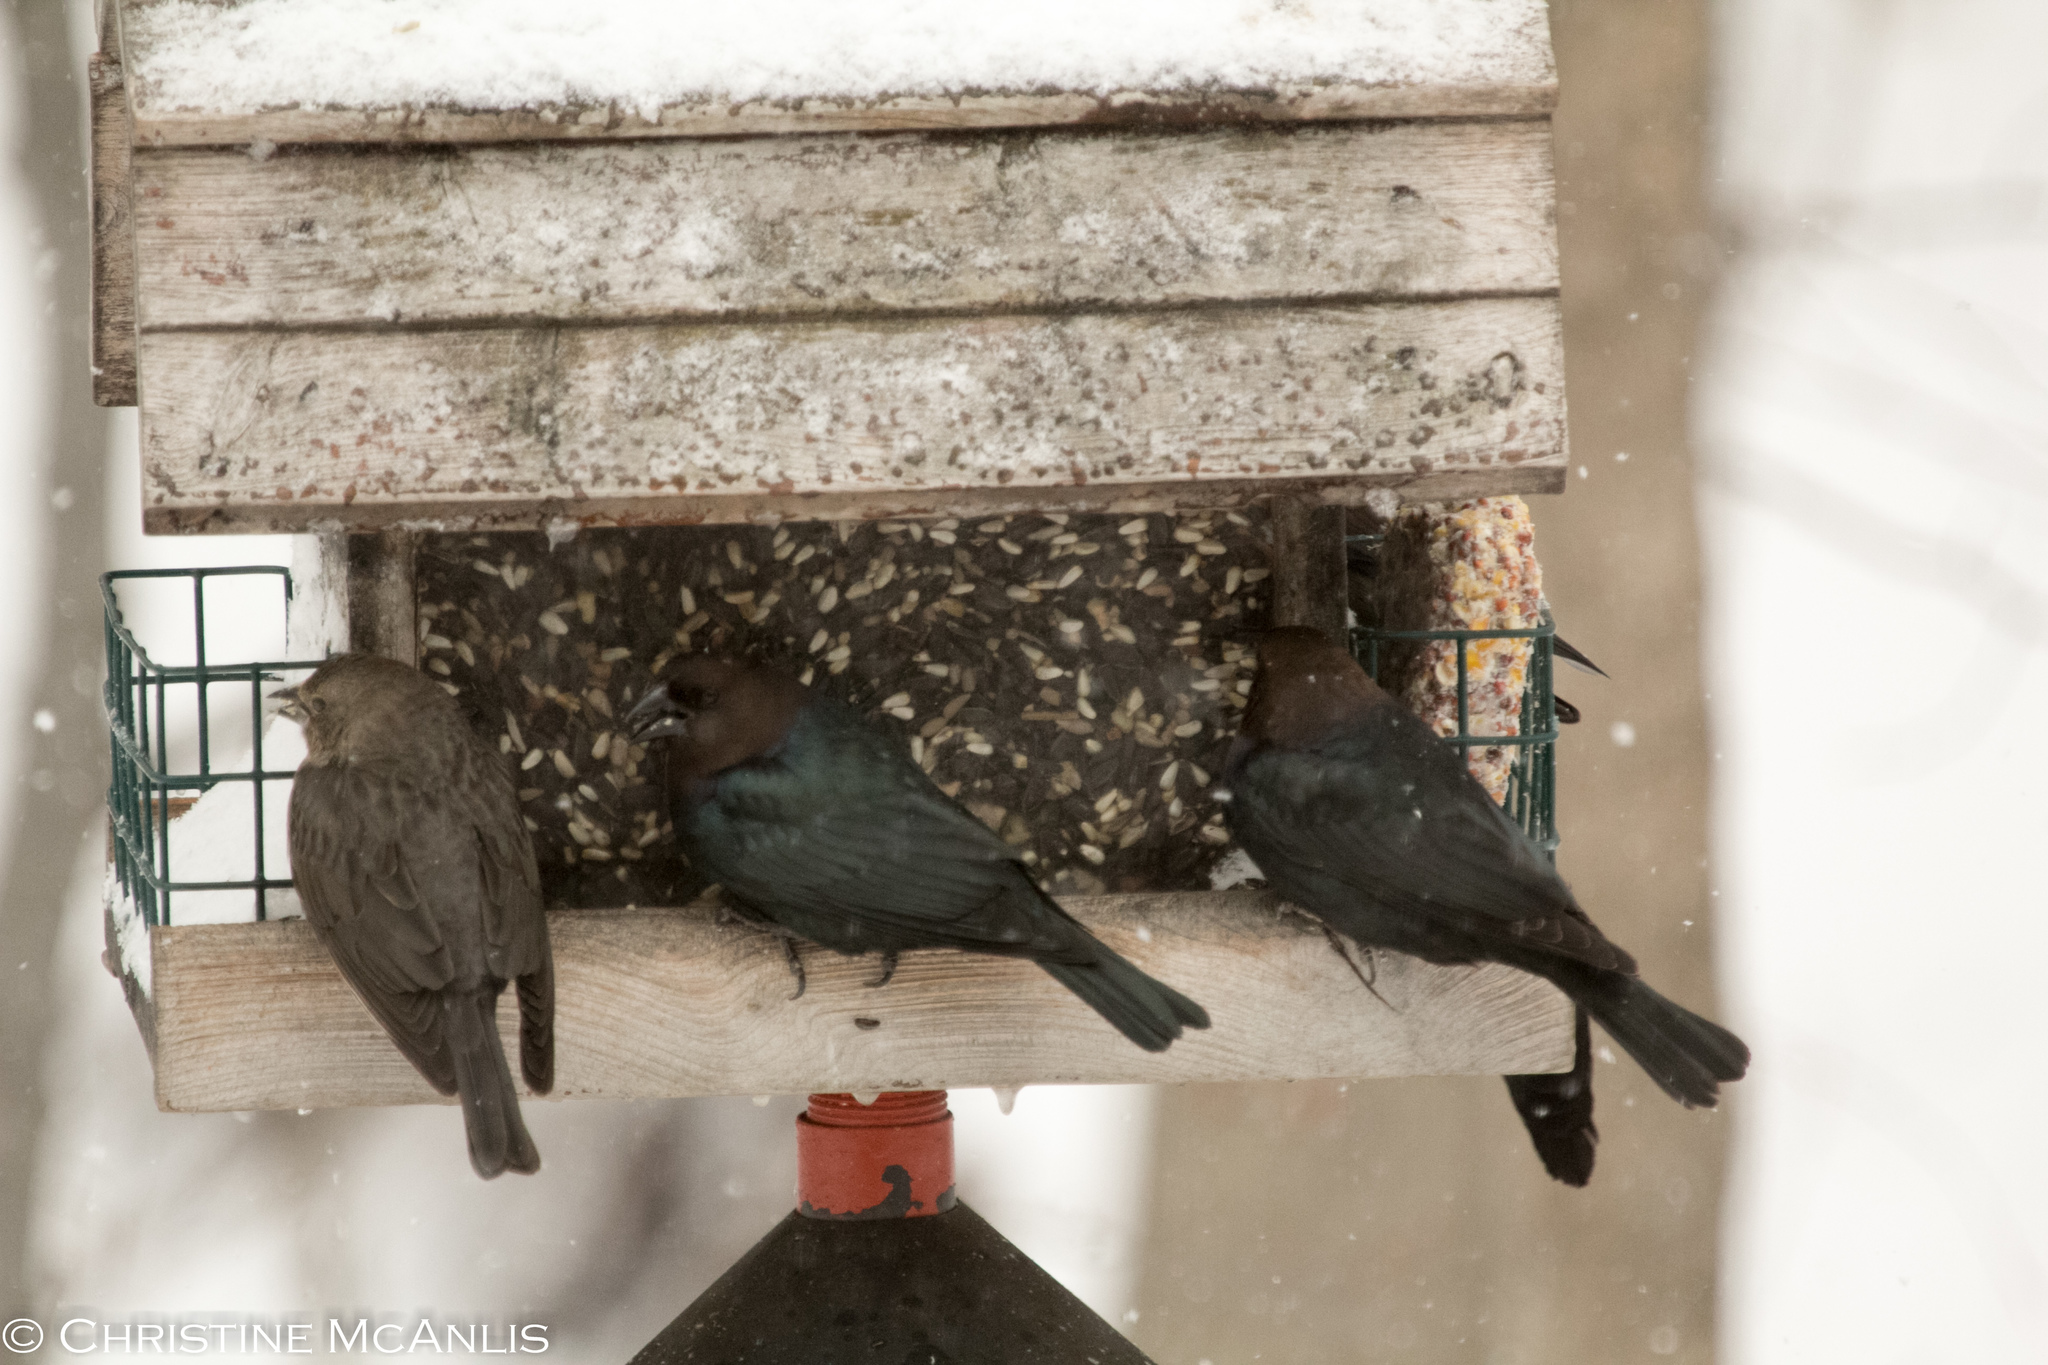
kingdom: Animalia
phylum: Chordata
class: Aves
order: Passeriformes
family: Icteridae
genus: Molothrus
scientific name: Molothrus ater
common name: Brown-headed cowbird
